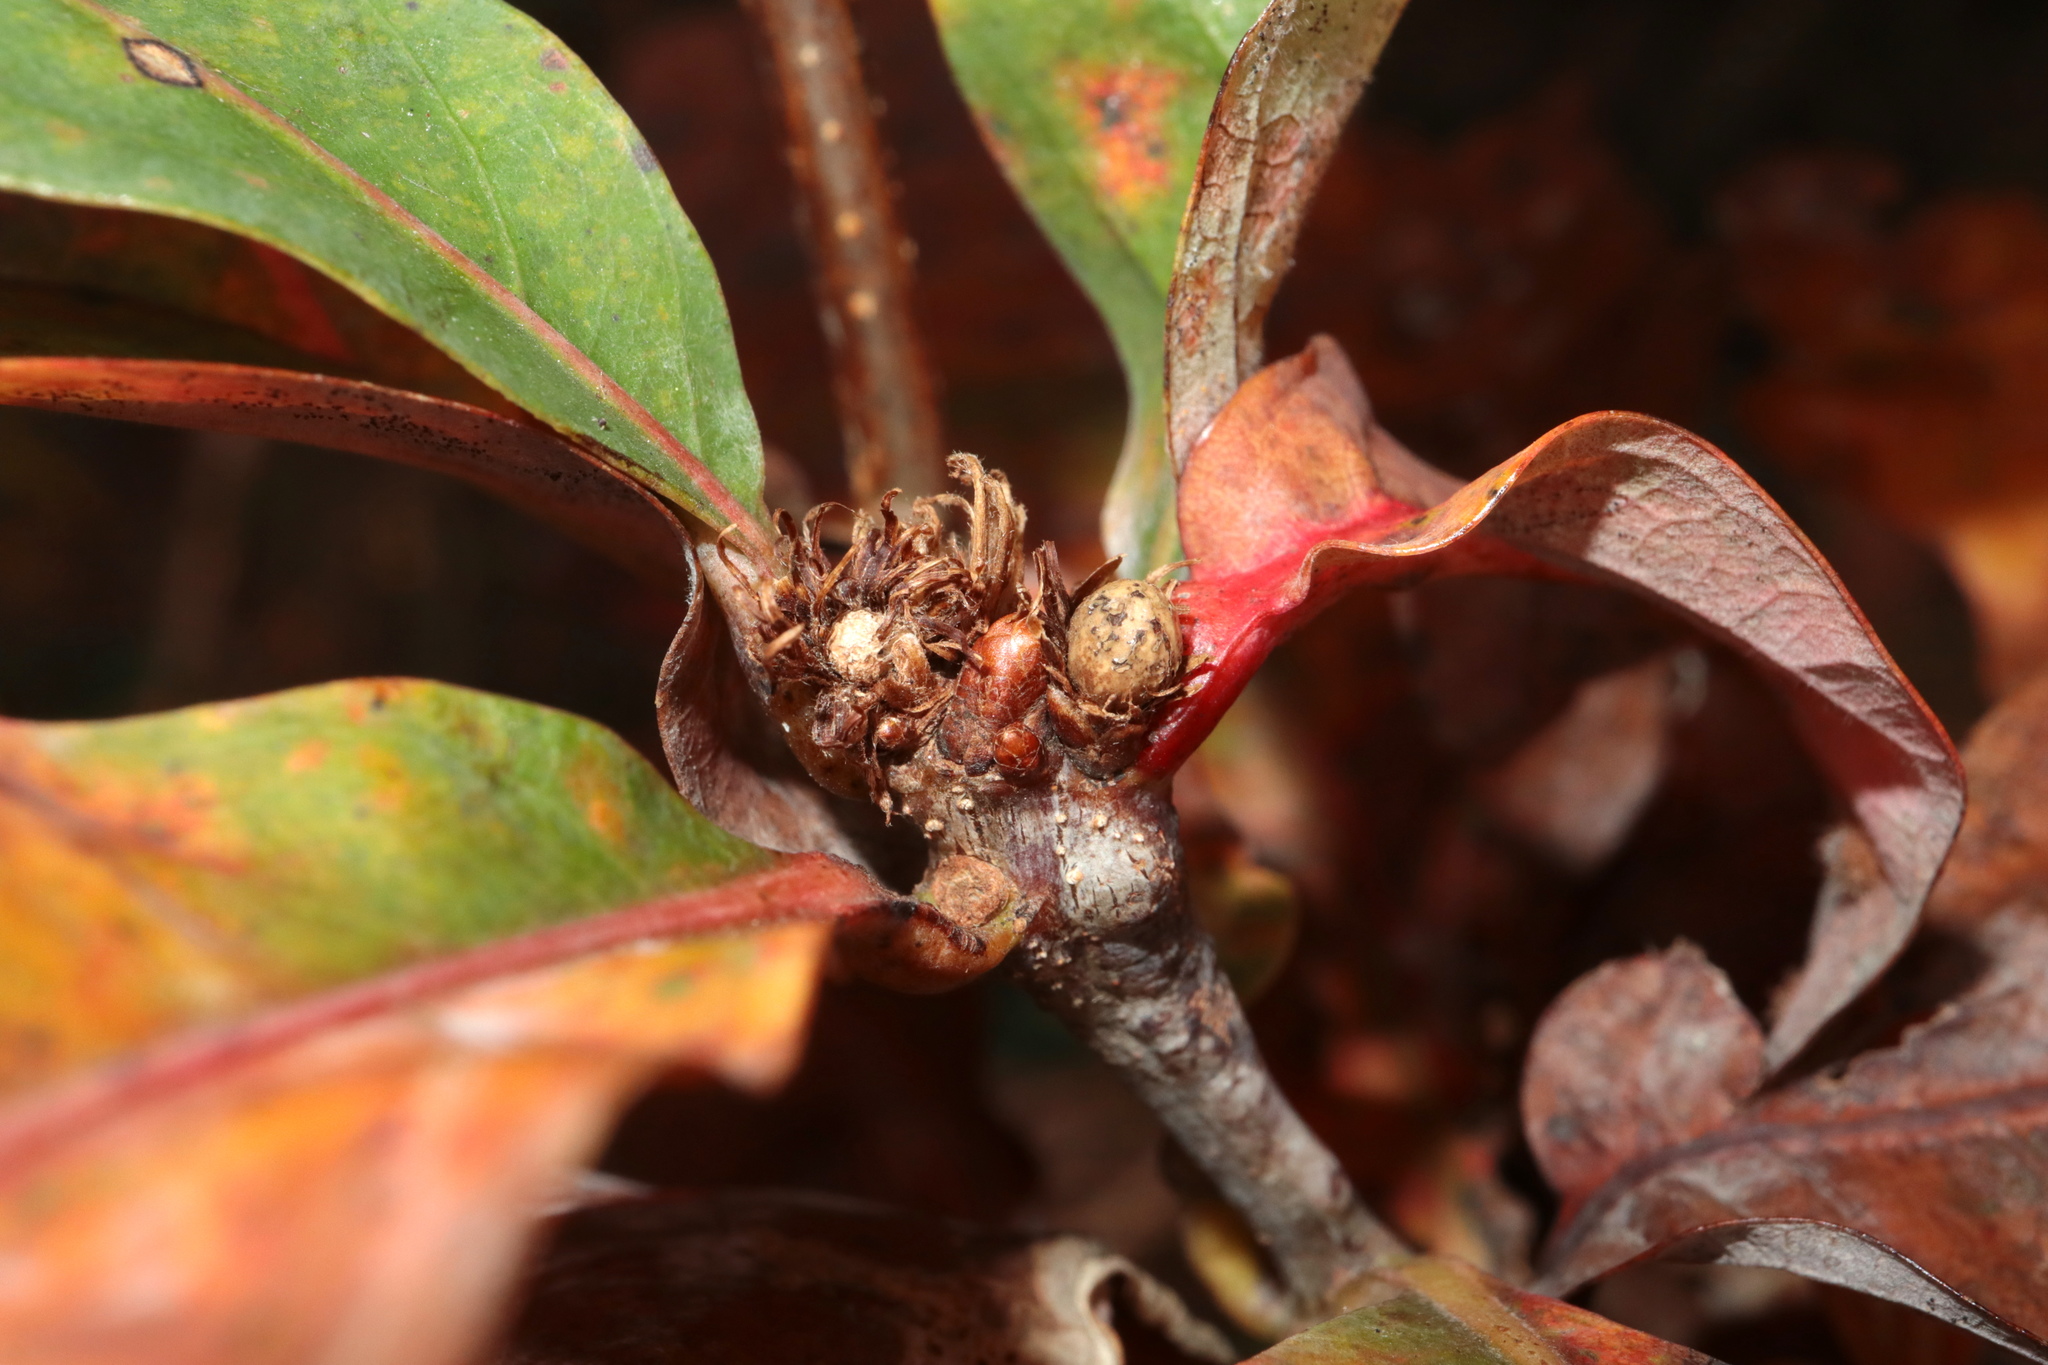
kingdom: Animalia
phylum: Arthropoda
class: Insecta
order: Hymenoptera
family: Cynipidae
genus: Andricus
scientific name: Andricus
